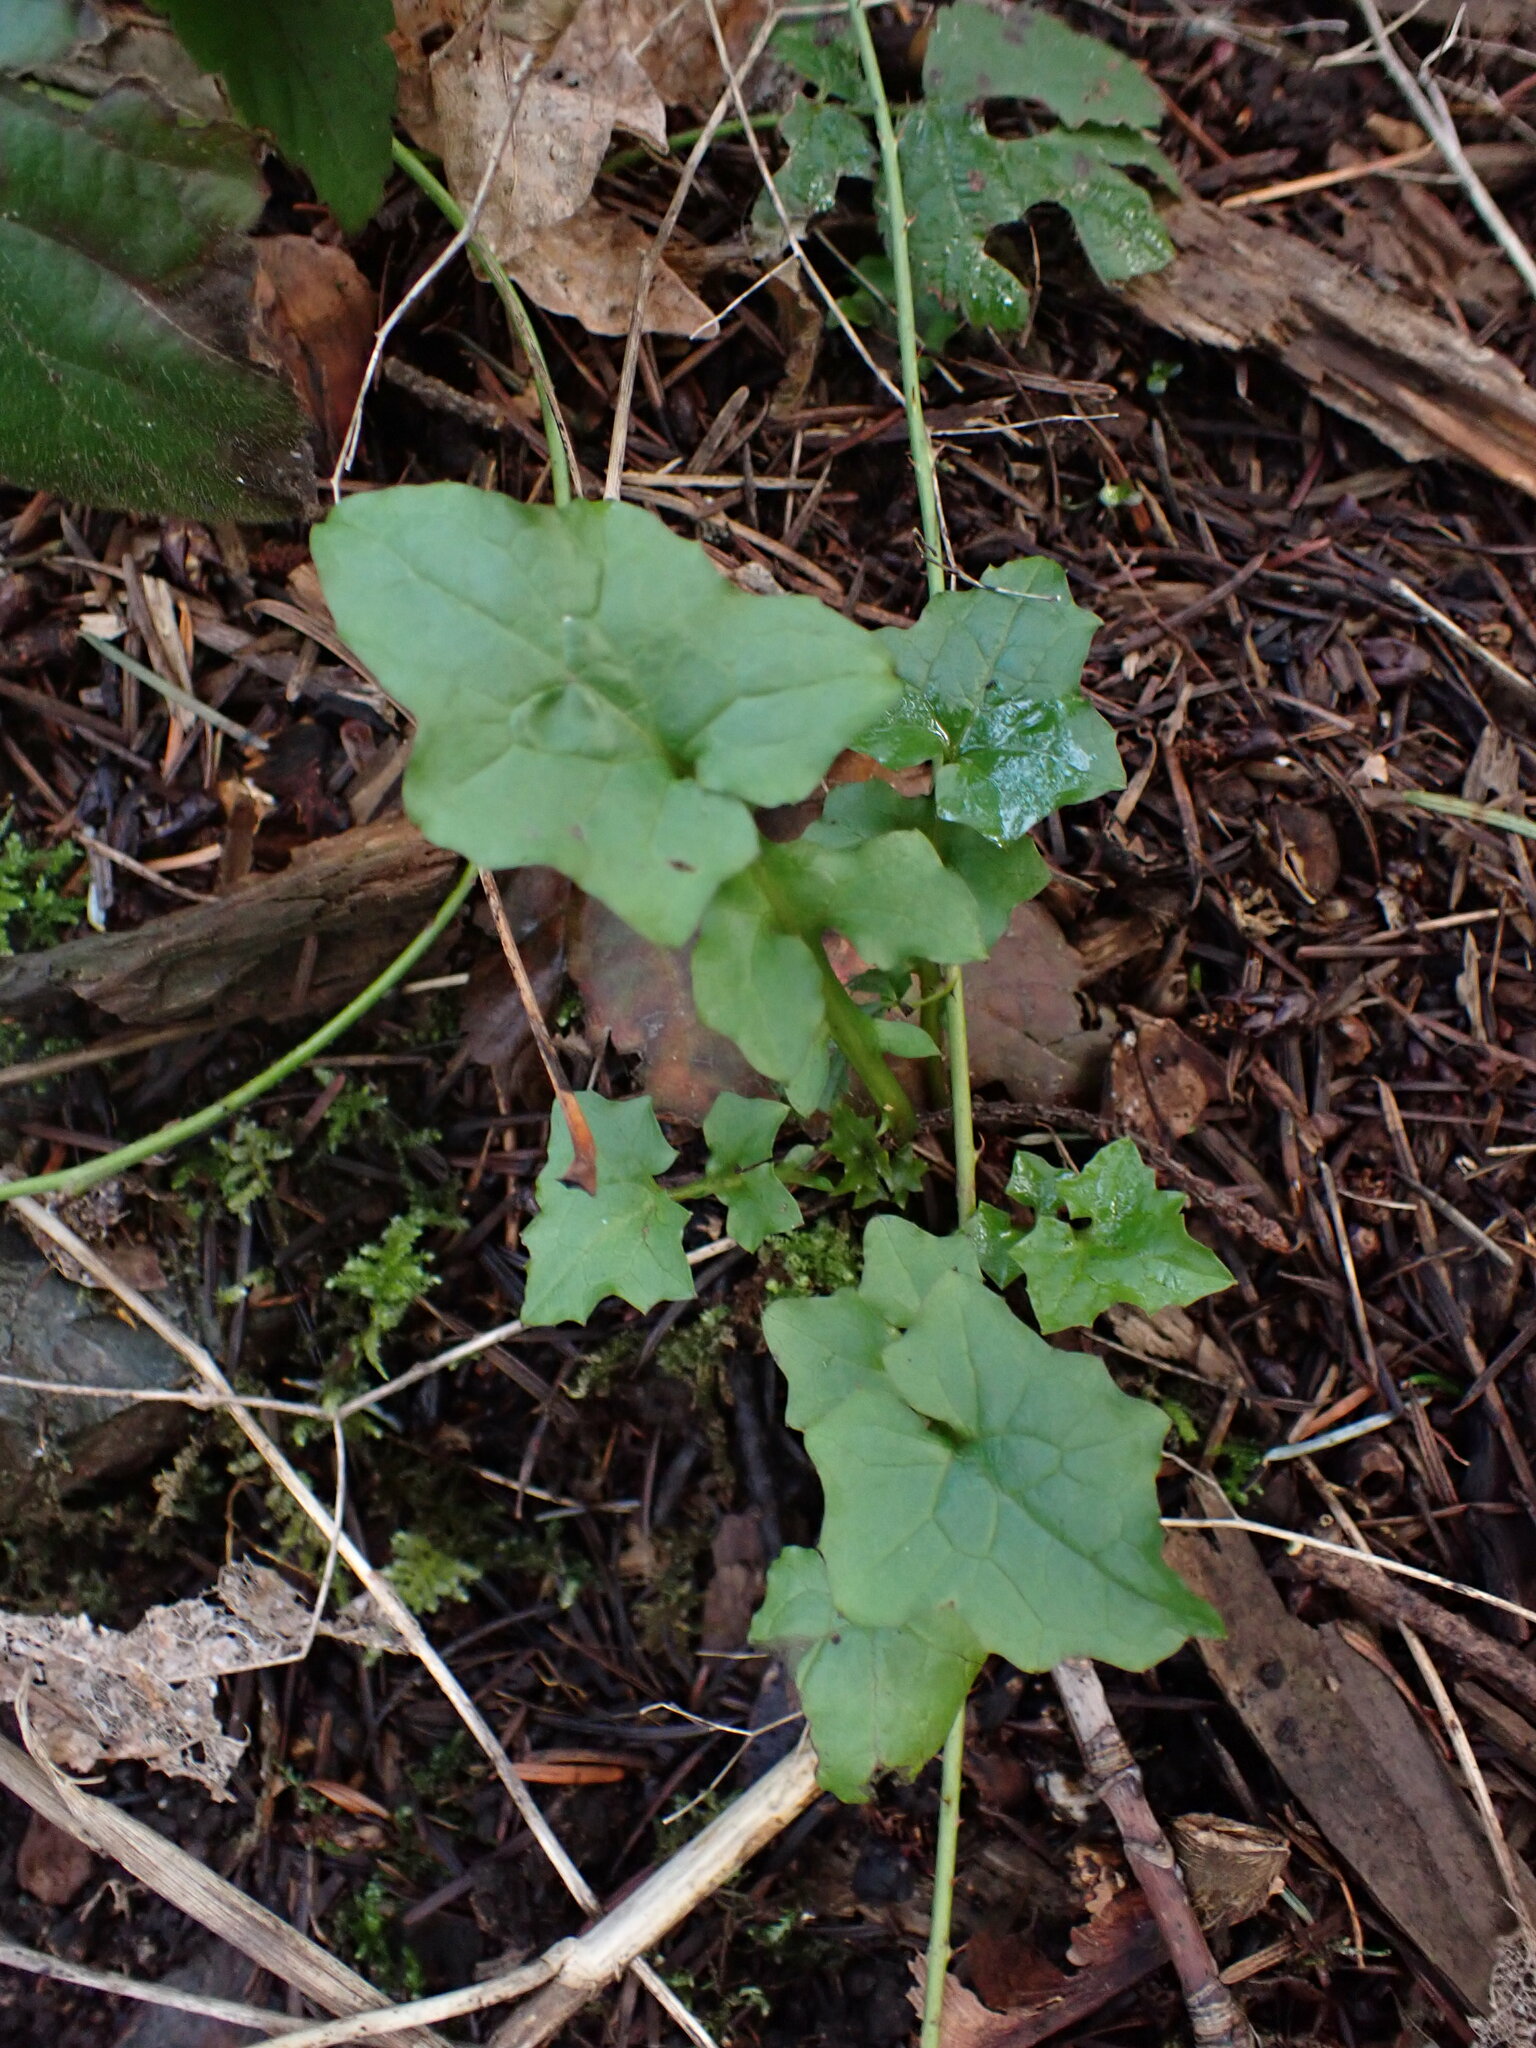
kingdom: Plantae
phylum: Tracheophyta
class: Magnoliopsida
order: Asterales
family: Asteraceae
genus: Mycelis
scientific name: Mycelis muralis
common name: Wall lettuce
